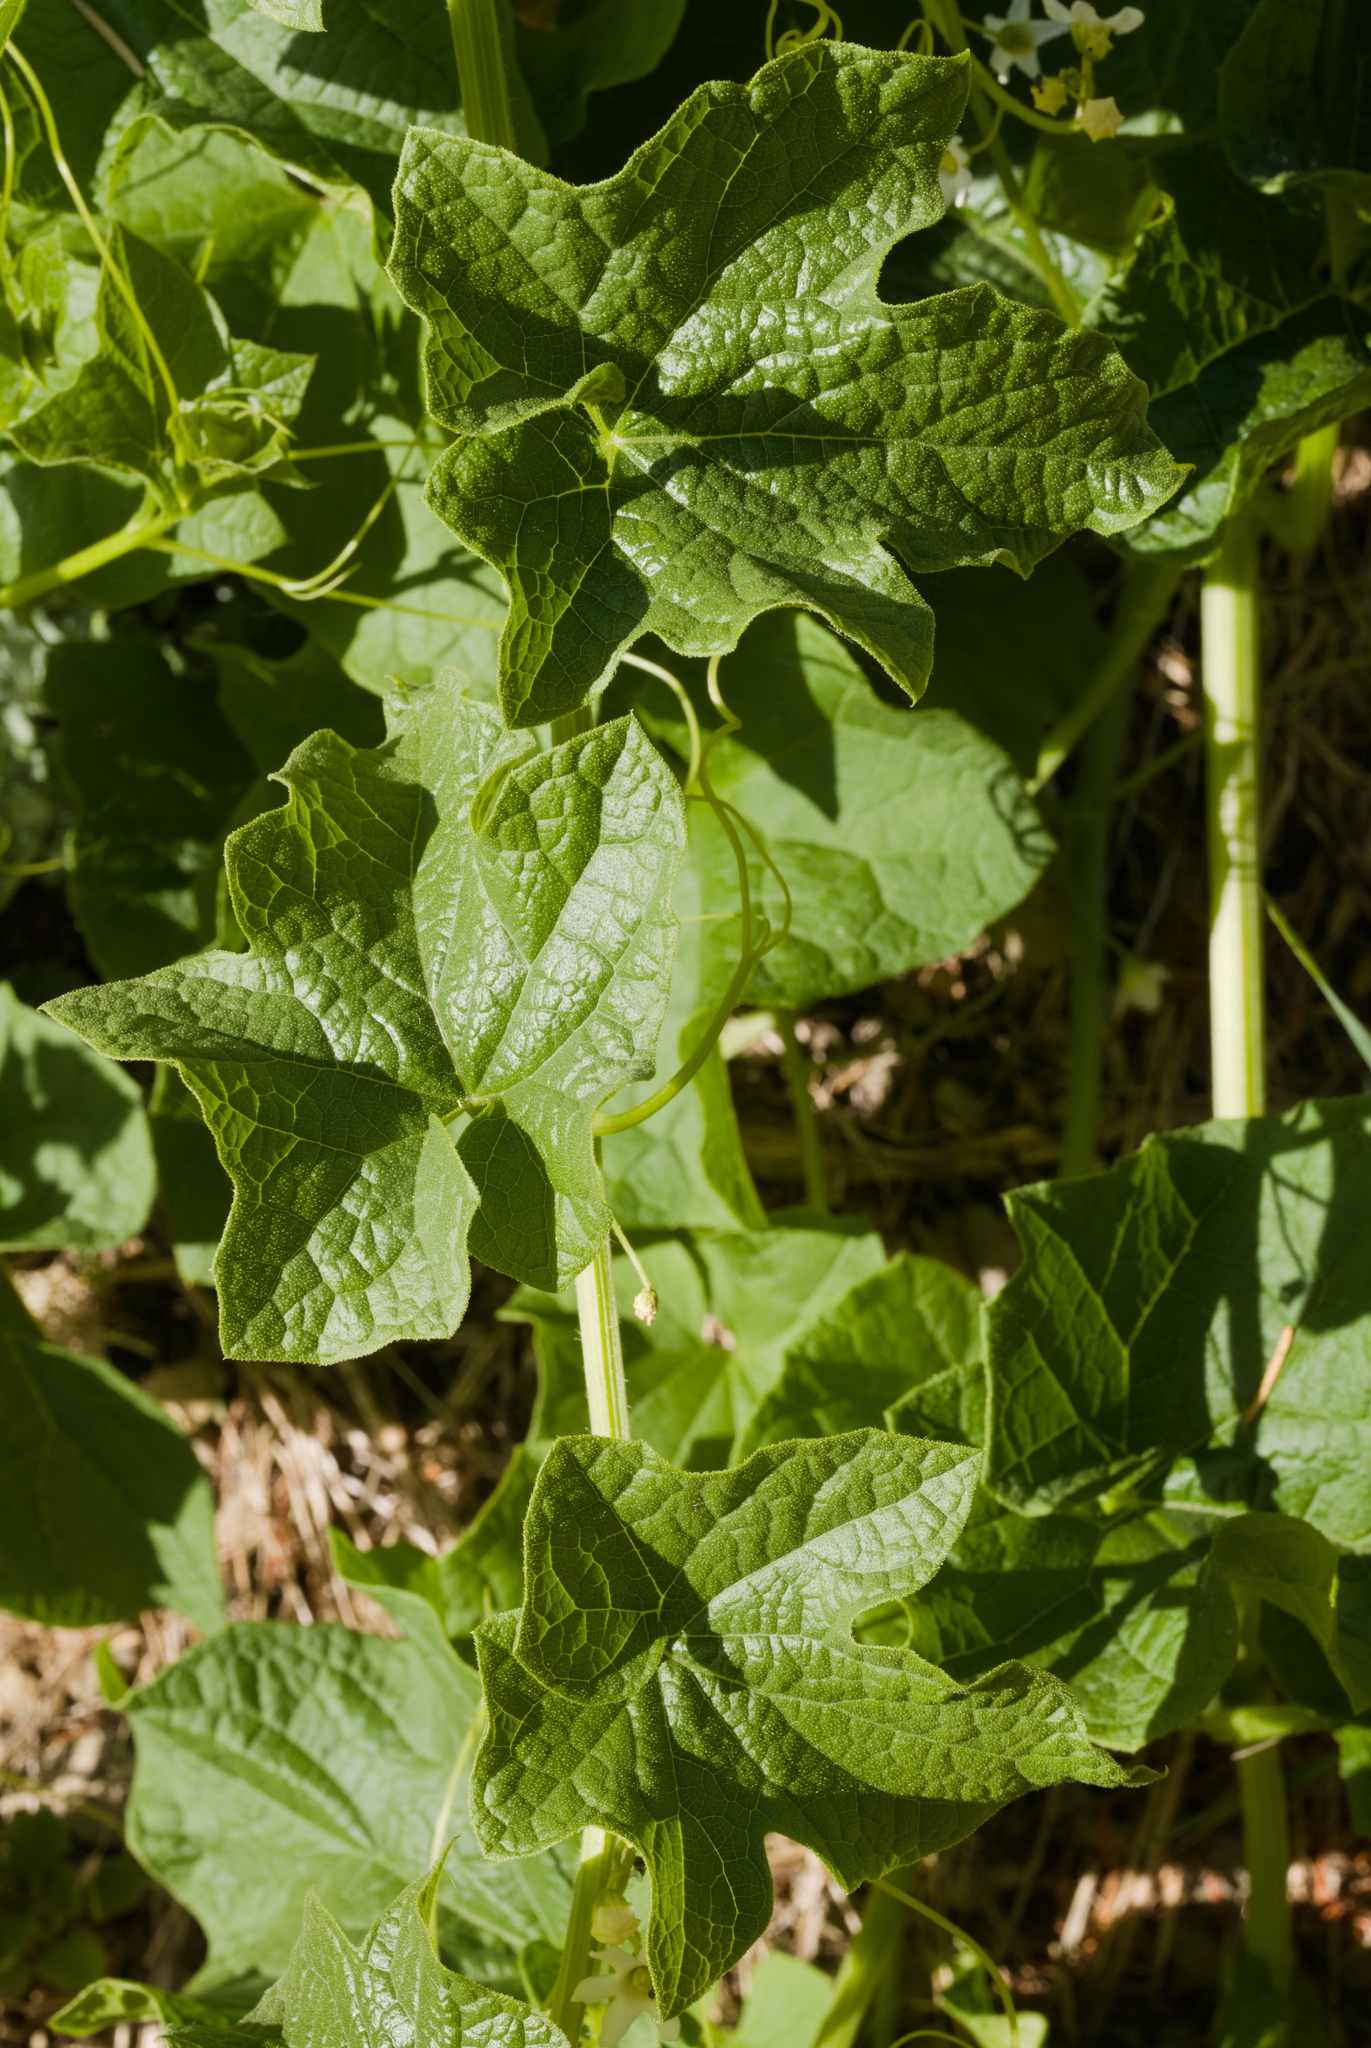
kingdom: Plantae
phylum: Tracheophyta
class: Magnoliopsida
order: Cucurbitales
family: Cucurbitaceae
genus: Marah
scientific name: Marah oregana
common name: Coastal manroot
